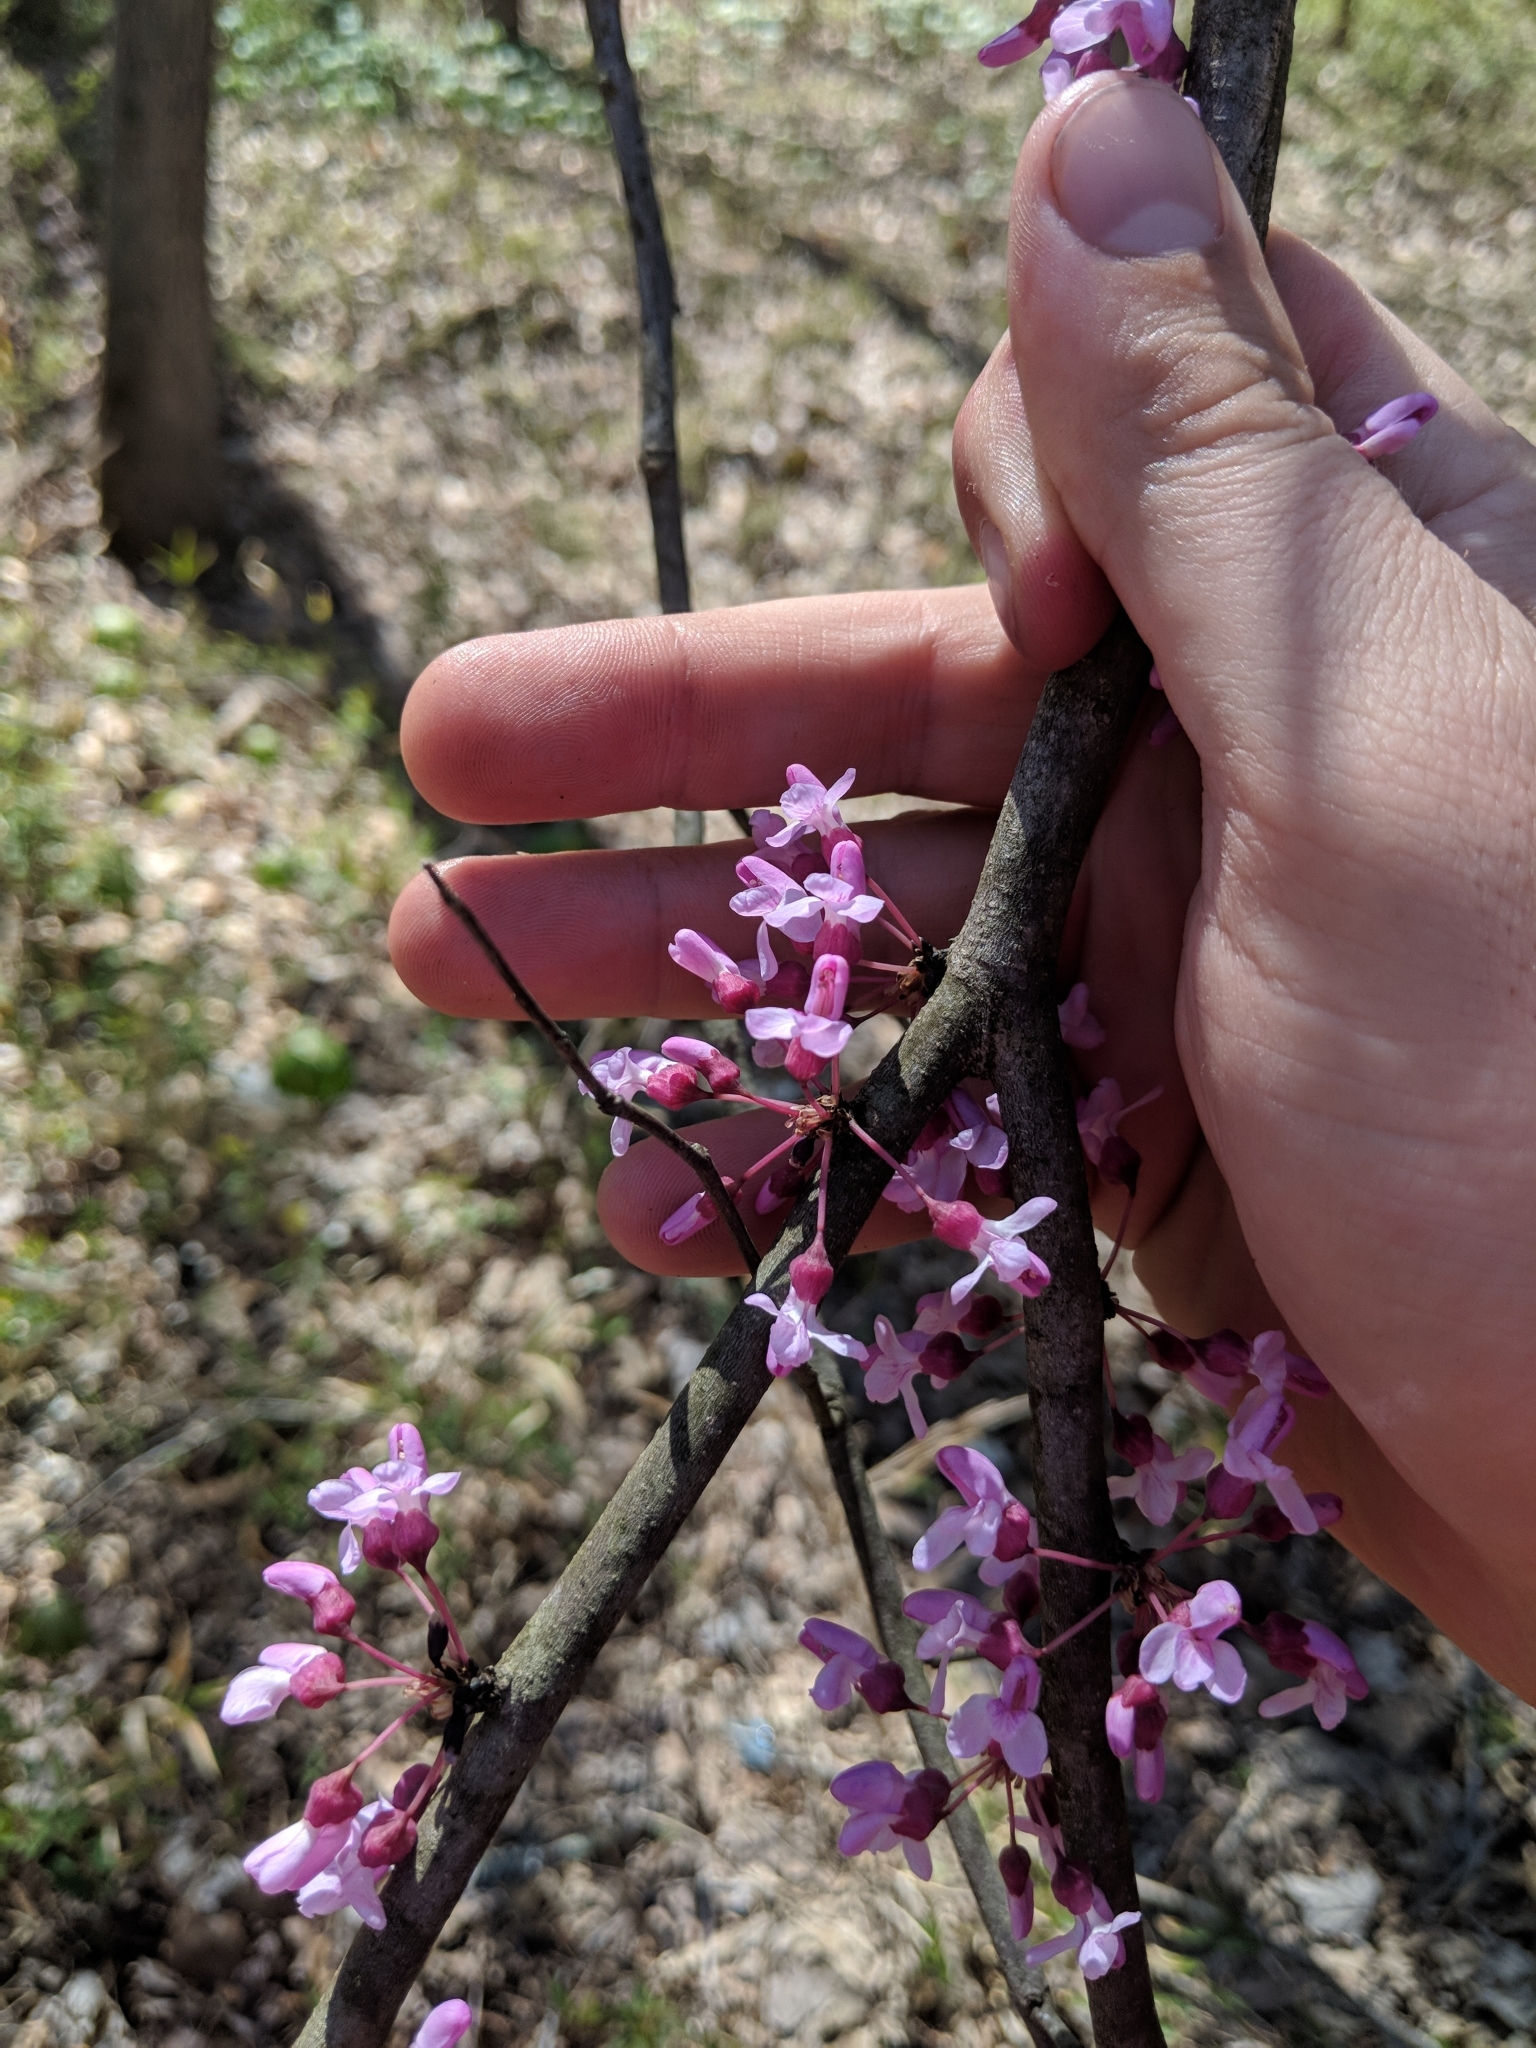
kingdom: Plantae
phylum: Tracheophyta
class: Magnoliopsida
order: Fabales
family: Fabaceae
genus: Cercis
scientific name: Cercis canadensis
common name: Eastern redbud
